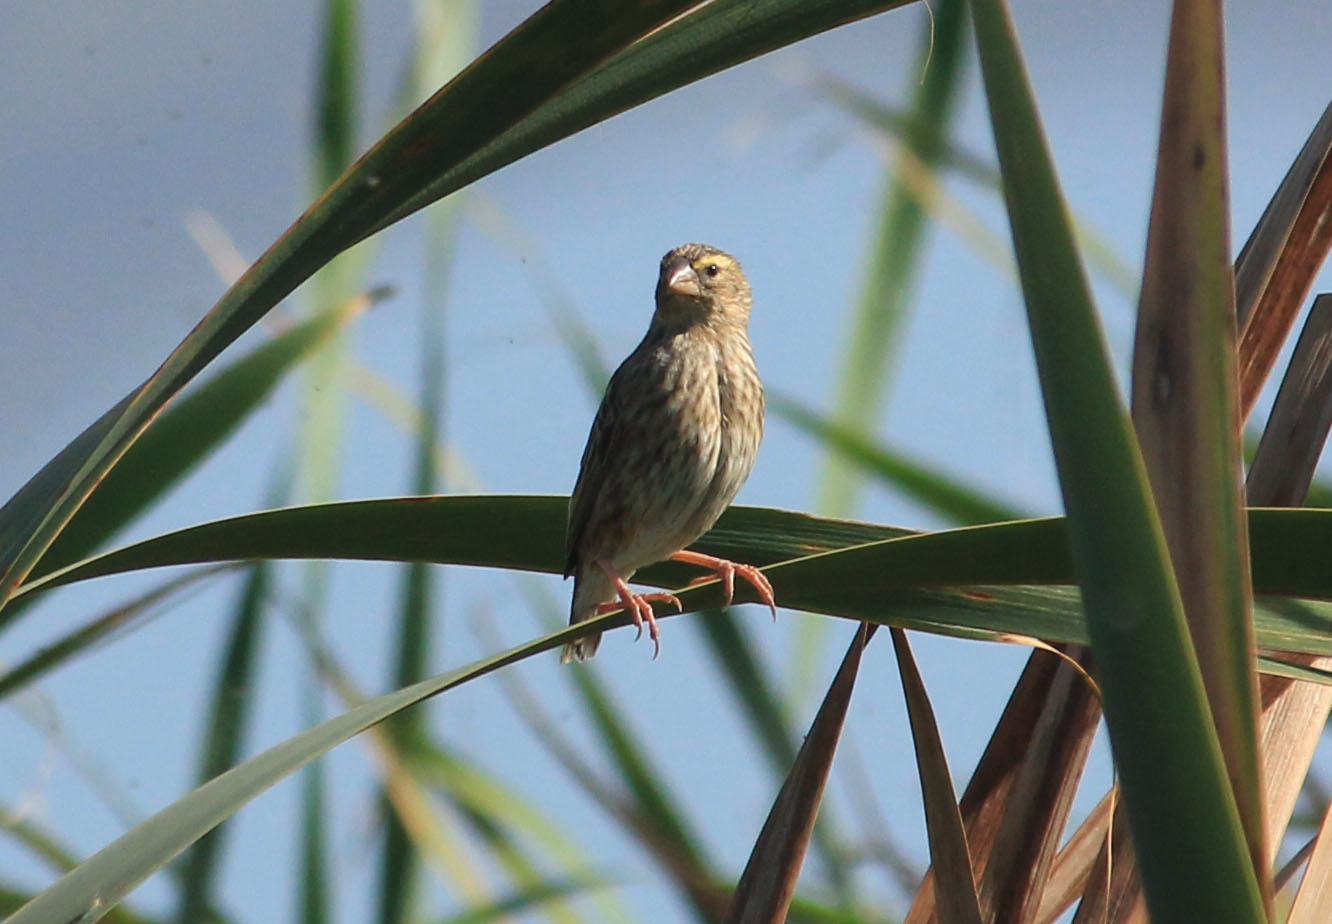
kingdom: Animalia
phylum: Chordata
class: Aves
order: Passeriformes
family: Ploceidae
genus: Euplectes
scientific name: Euplectes capensis
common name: Yellow bishop
